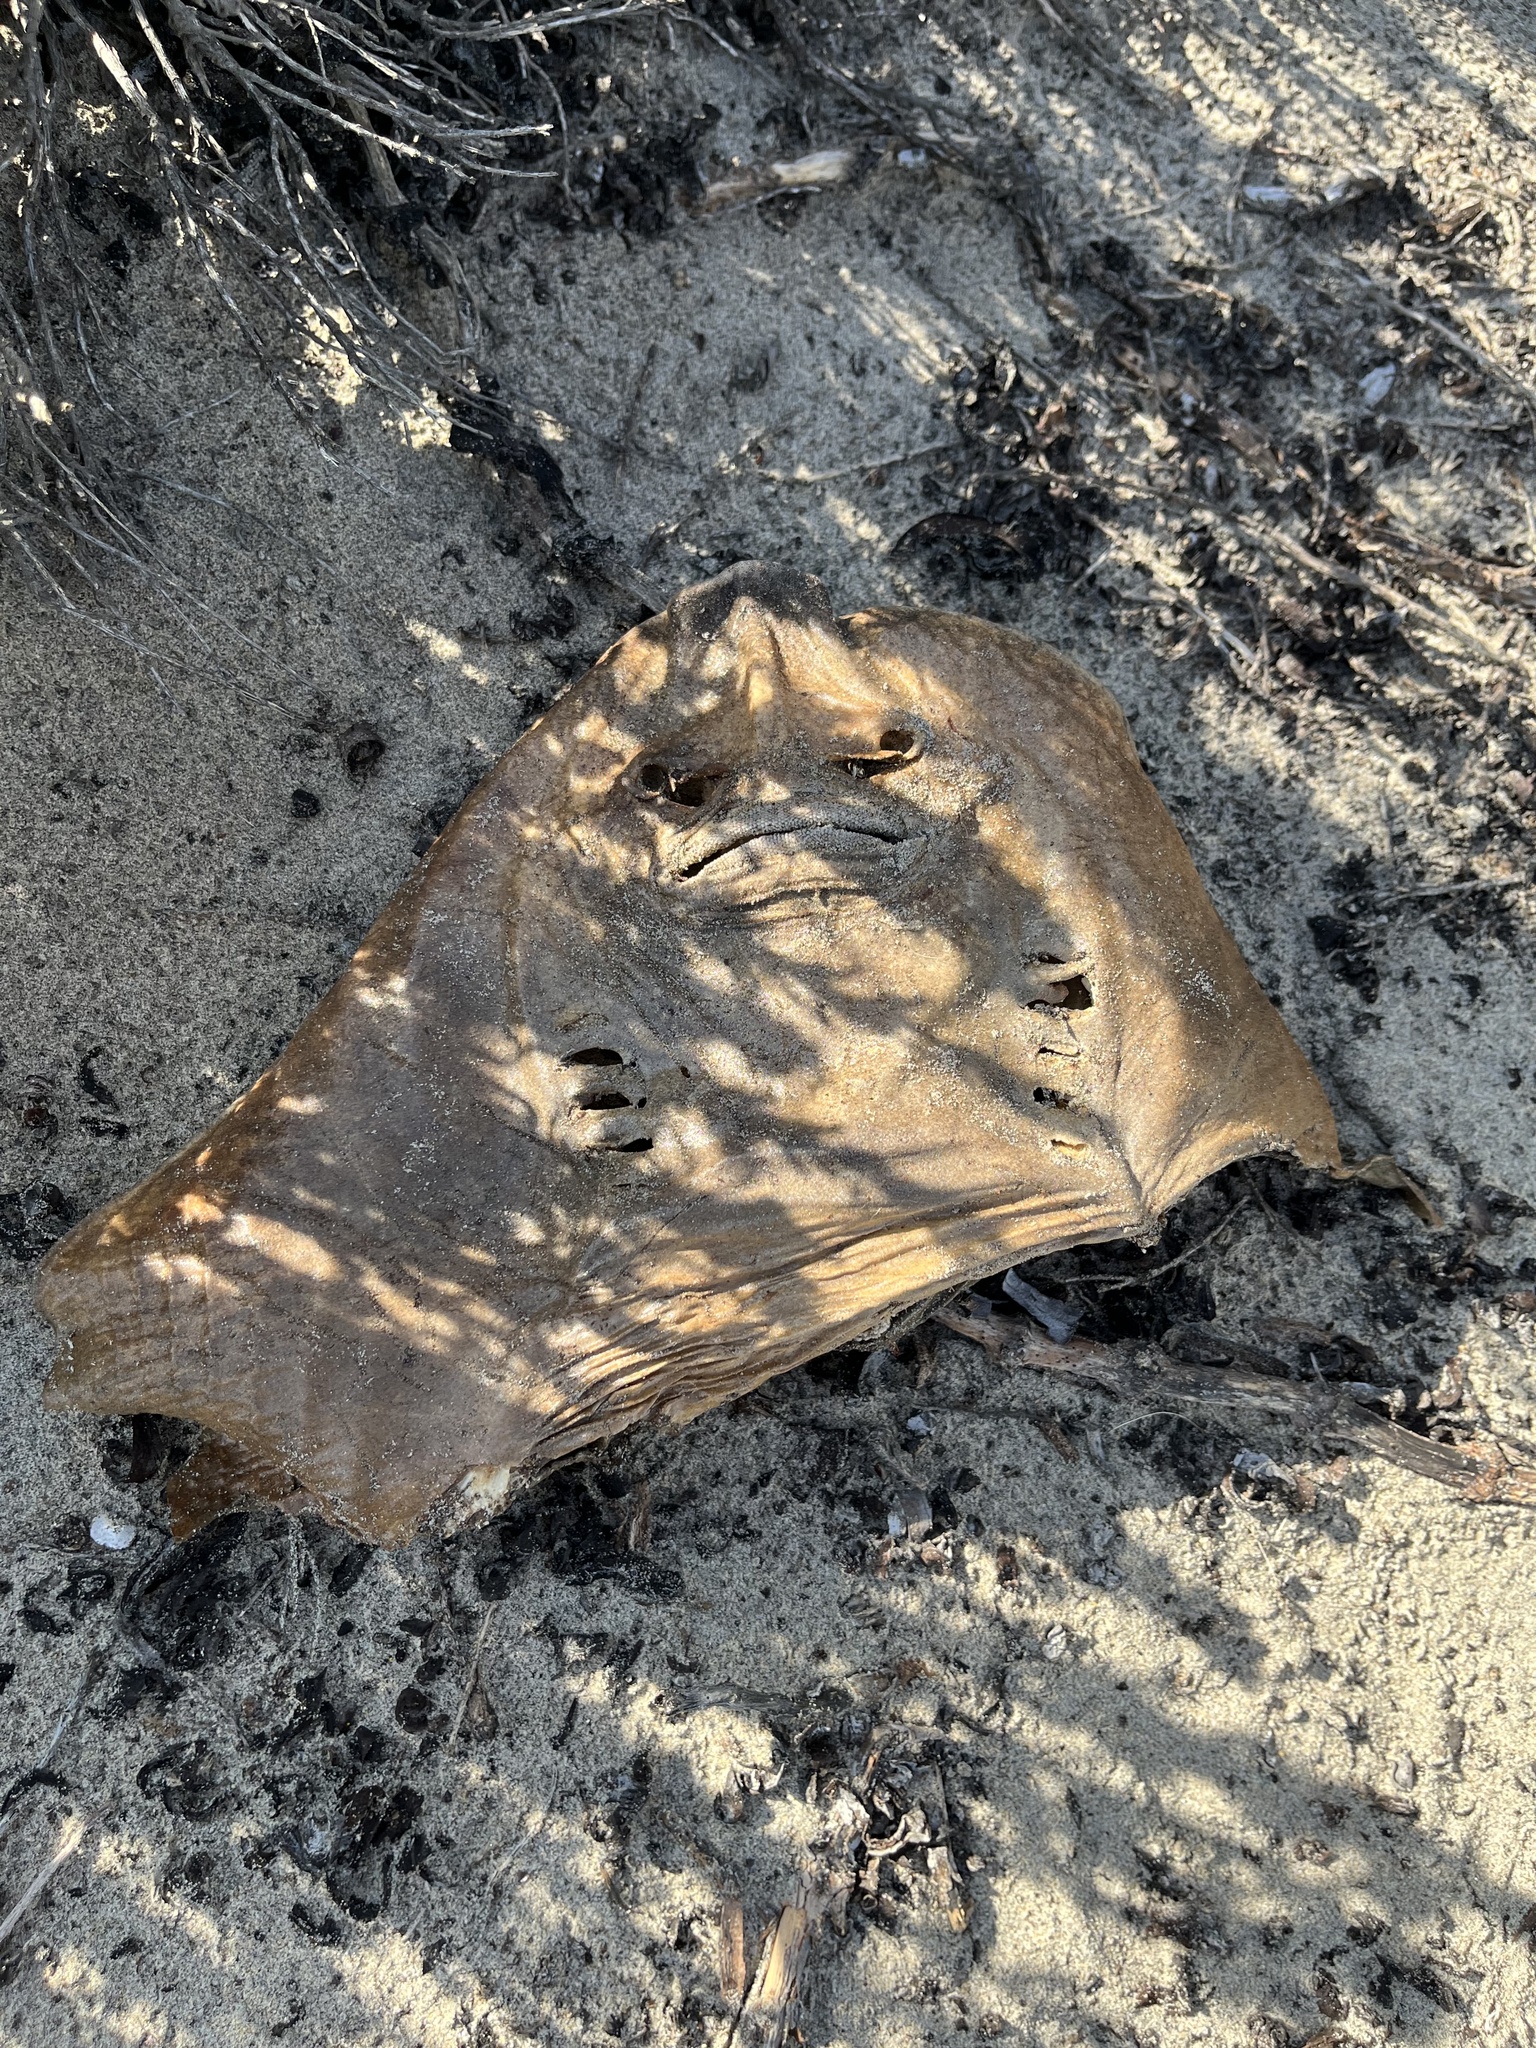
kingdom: Animalia
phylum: Chordata
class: Elasmobranchii
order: Rhinopristiformes
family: Rhinobatidae
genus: Platyrhinoidis
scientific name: Platyrhinoidis triseriata
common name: Thornback
